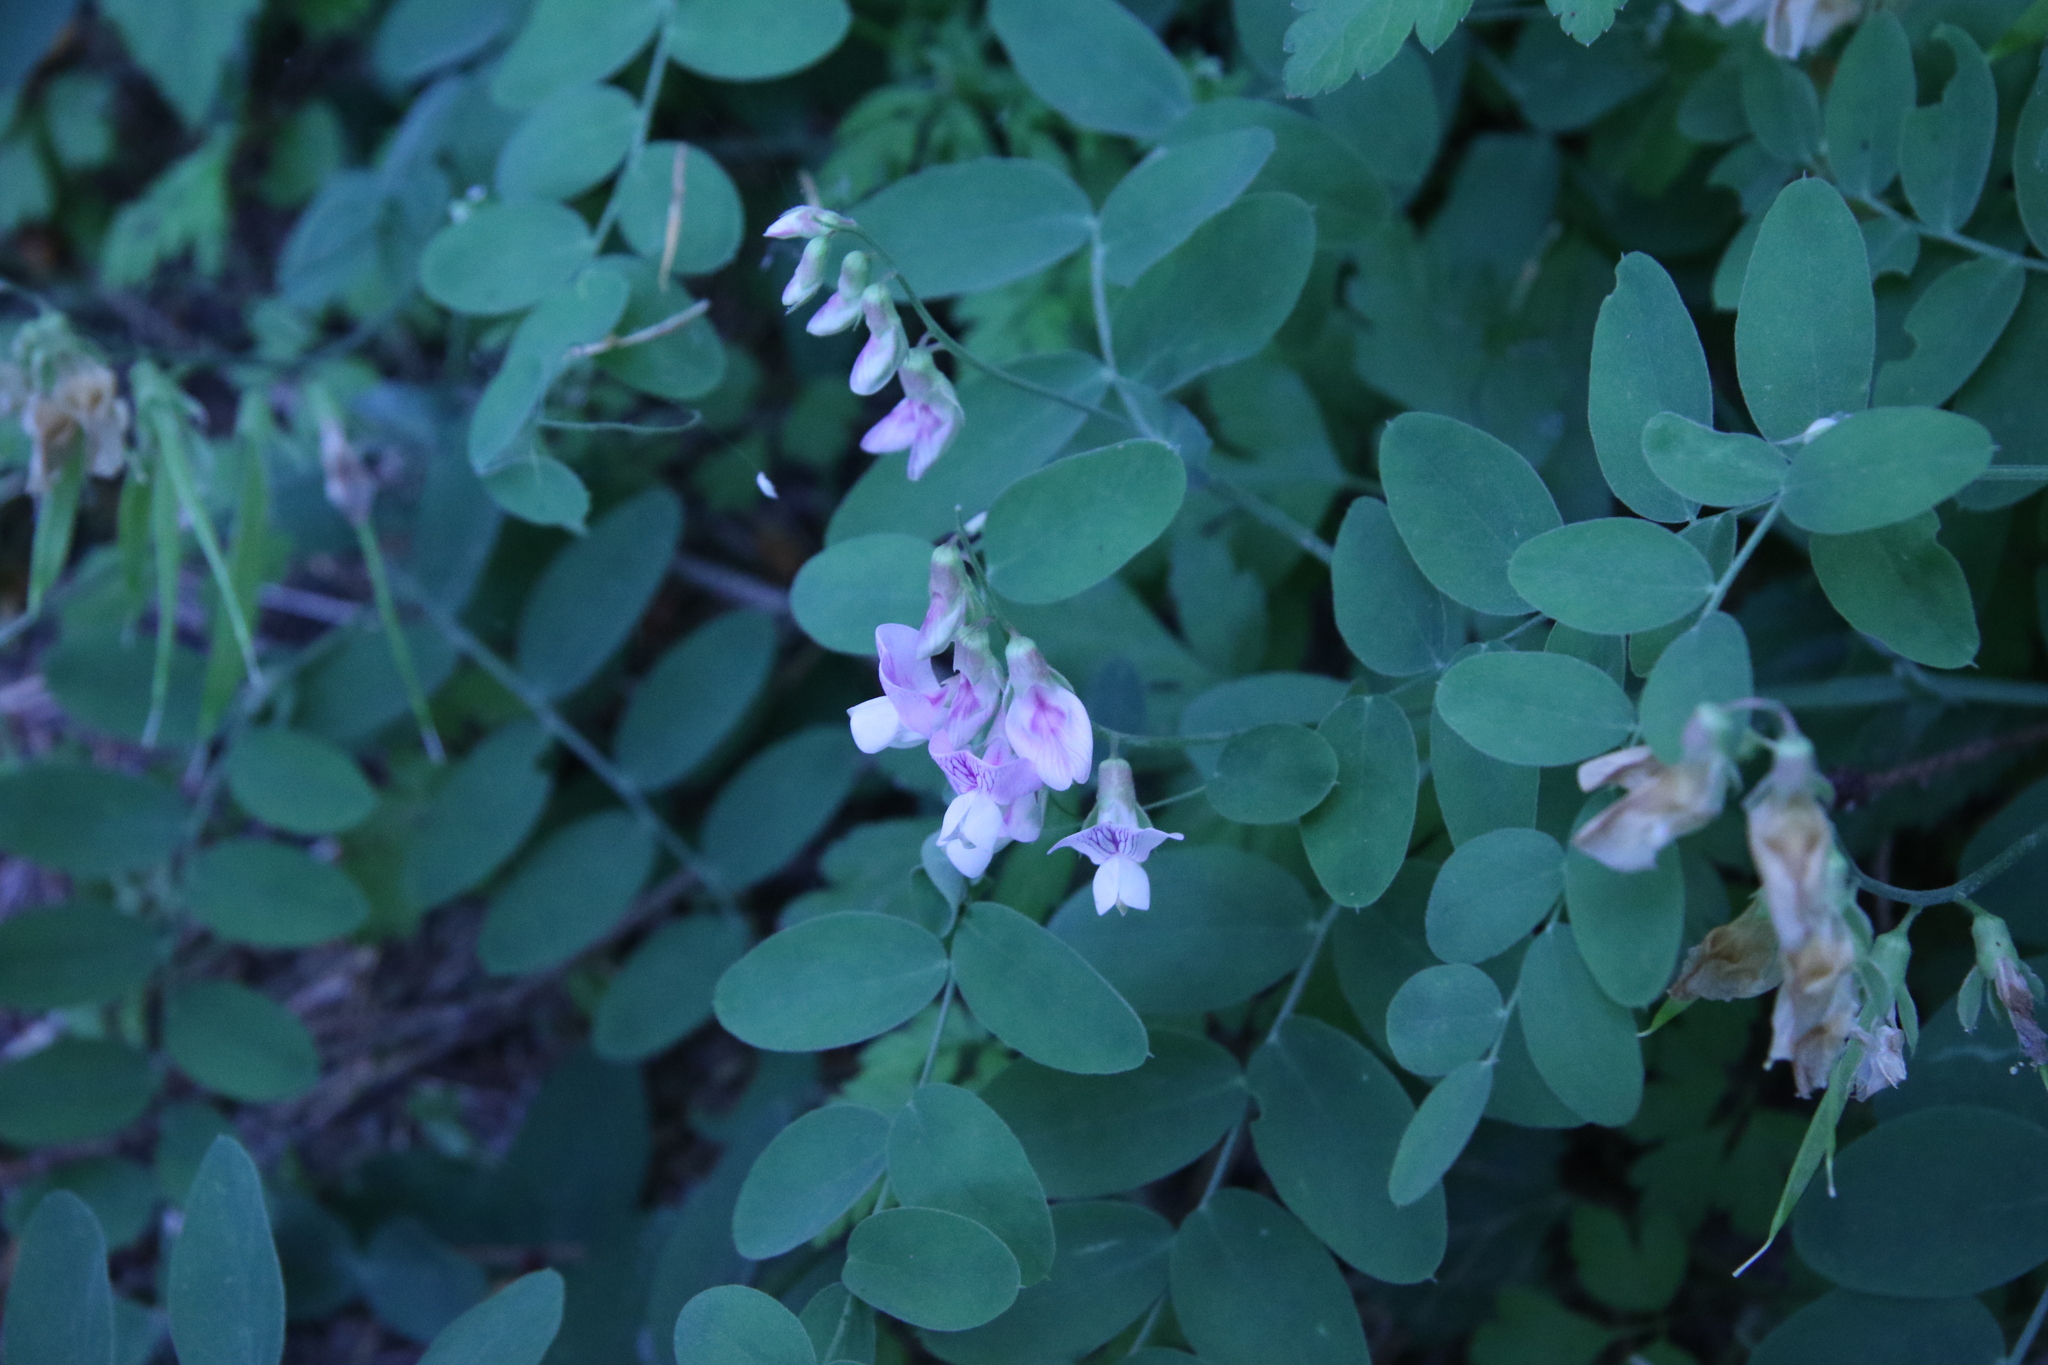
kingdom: Plantae
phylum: Tracheophyta
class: Magnoliopsida
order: Fabales
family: Fabaceae
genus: Lathyrus
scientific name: Lathyrus vestitus
